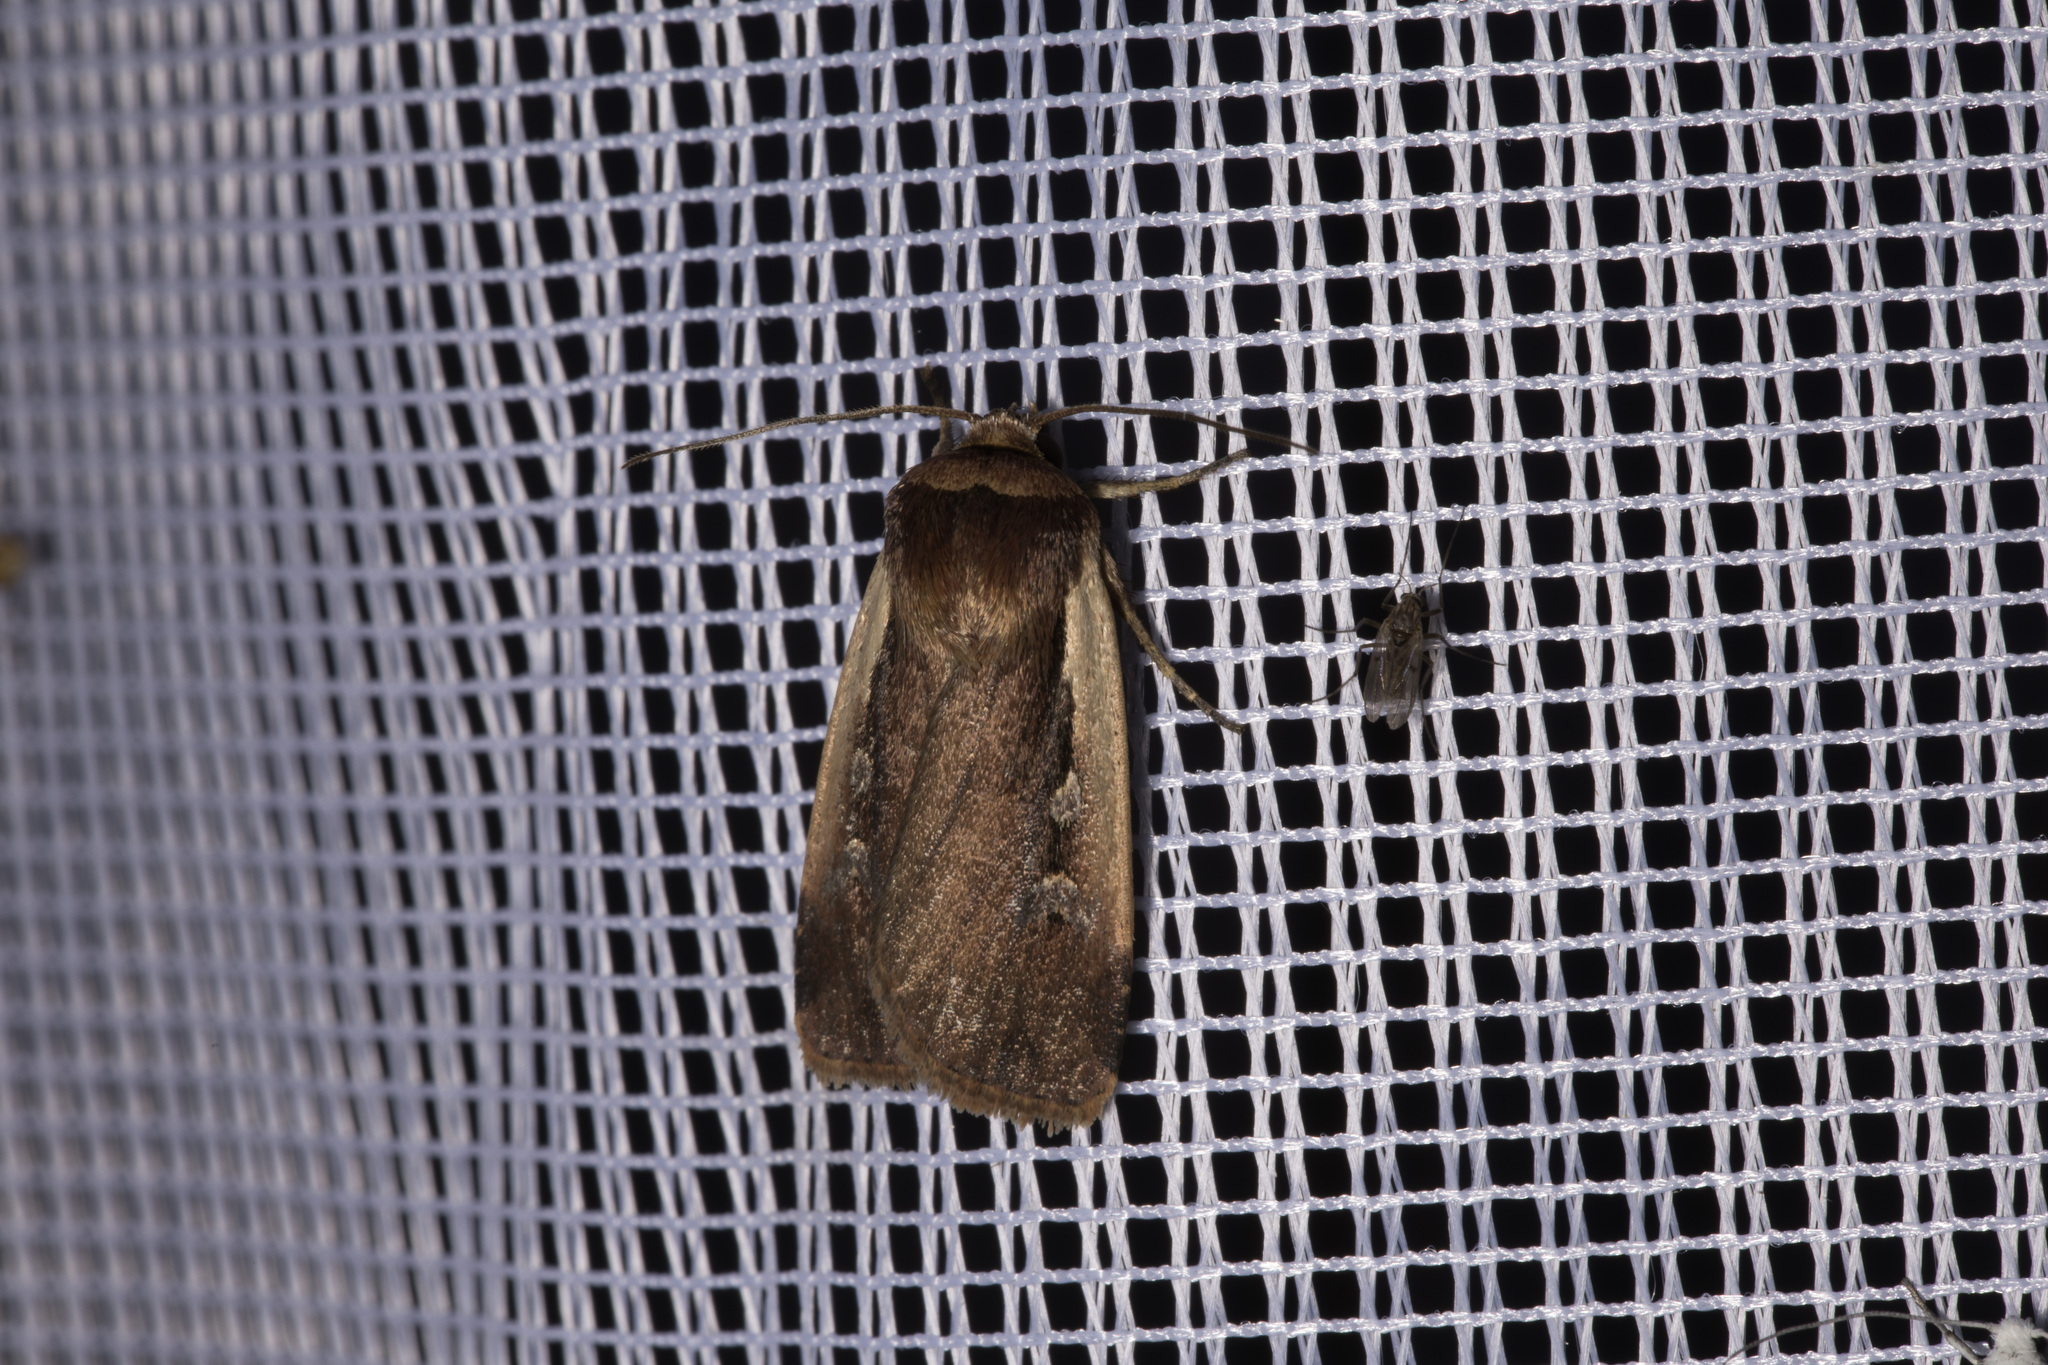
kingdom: Animalia
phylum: Arthropoda
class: Insecta
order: Lepidoptera
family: Noctuidae
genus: Ochropleura
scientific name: Ochropleura plecta
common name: Flame shoulder
